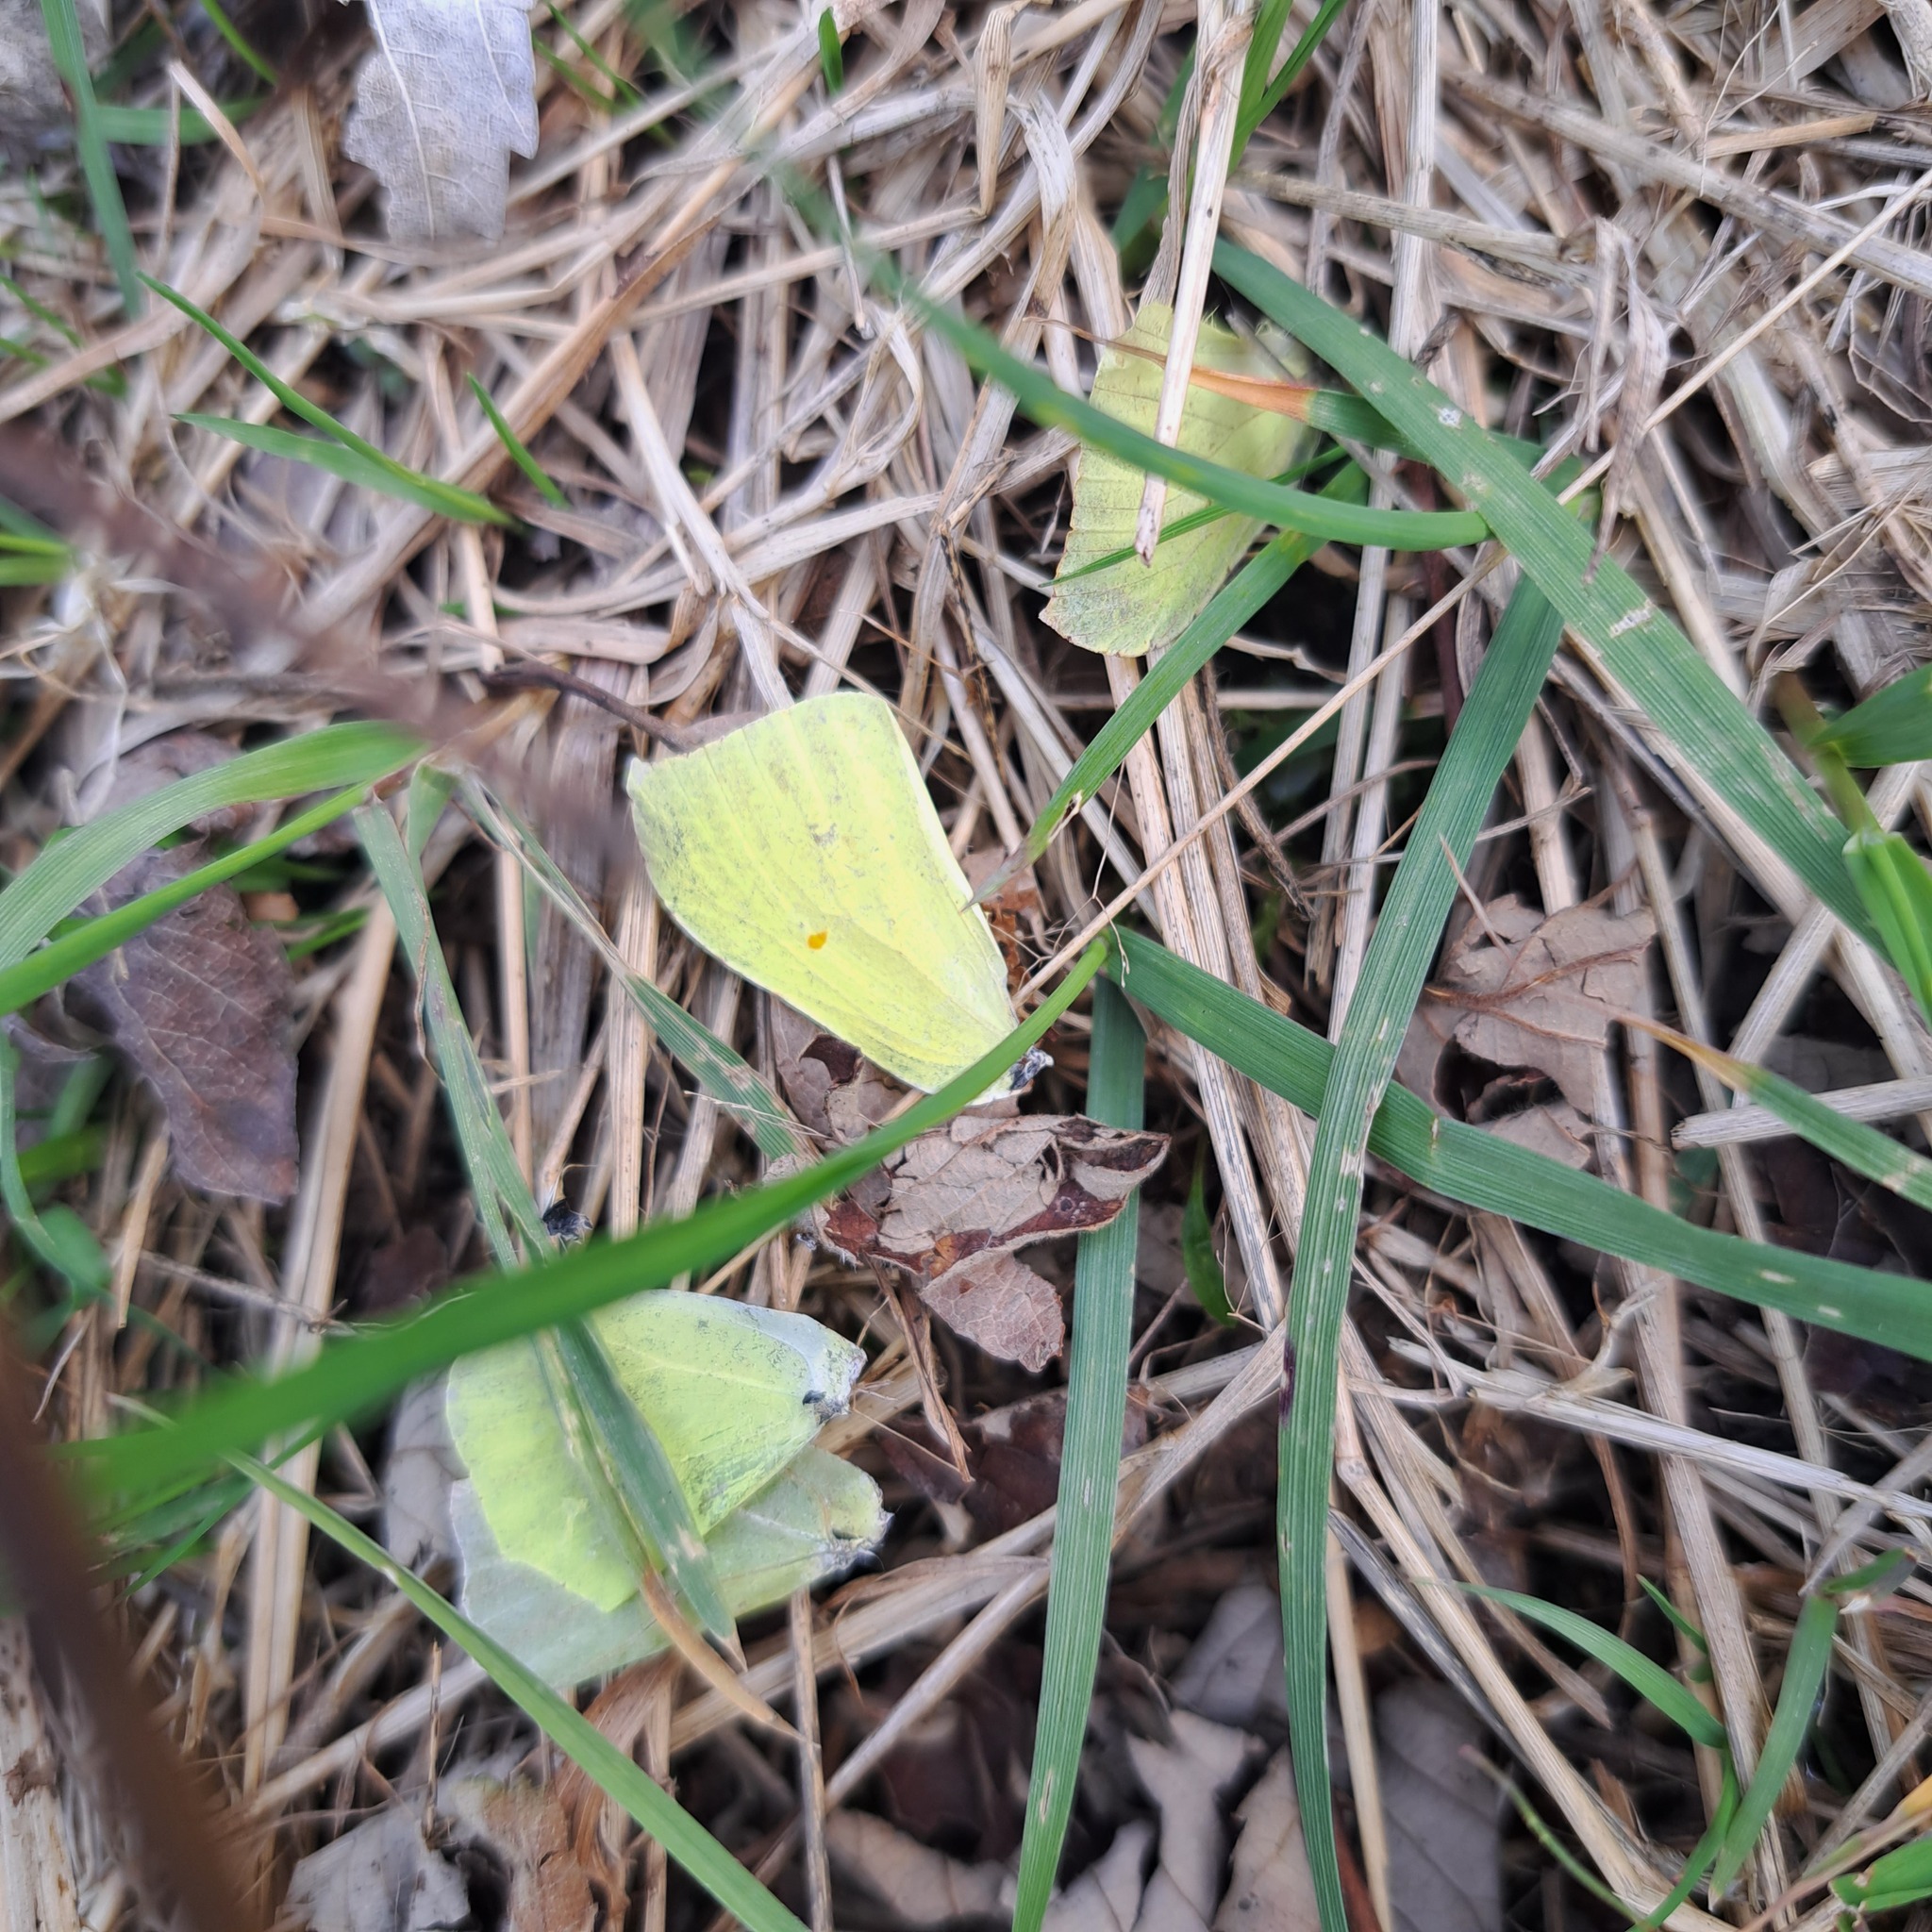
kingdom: Animalia
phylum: Arthropoda
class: Insecta
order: Lepidoptera
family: Pieridae
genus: Gonepteryx
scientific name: Gonepteryx rhamni
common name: Brimstone
